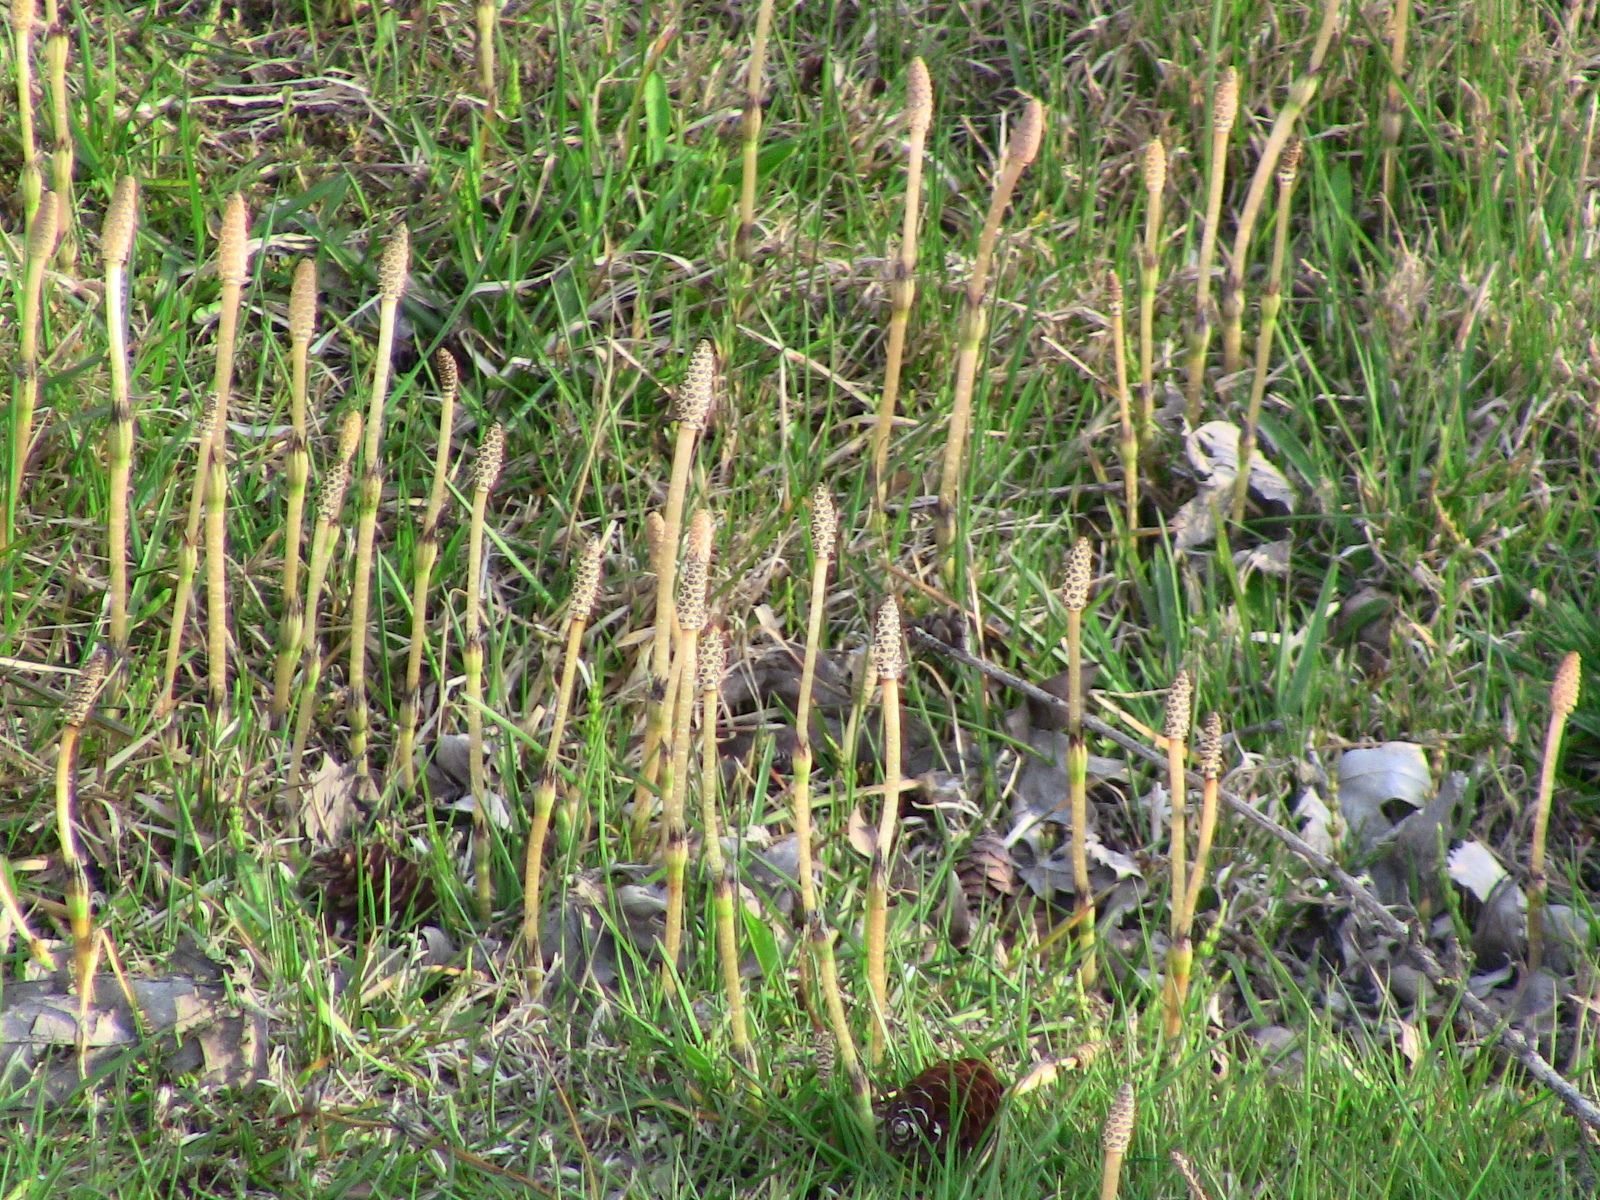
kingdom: Plantae
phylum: Tracheophyta
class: Polypodiopsida
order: Equisetales
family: Equisetaceae
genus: Equisetum
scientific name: Equisetum arvense
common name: Field horsetail
